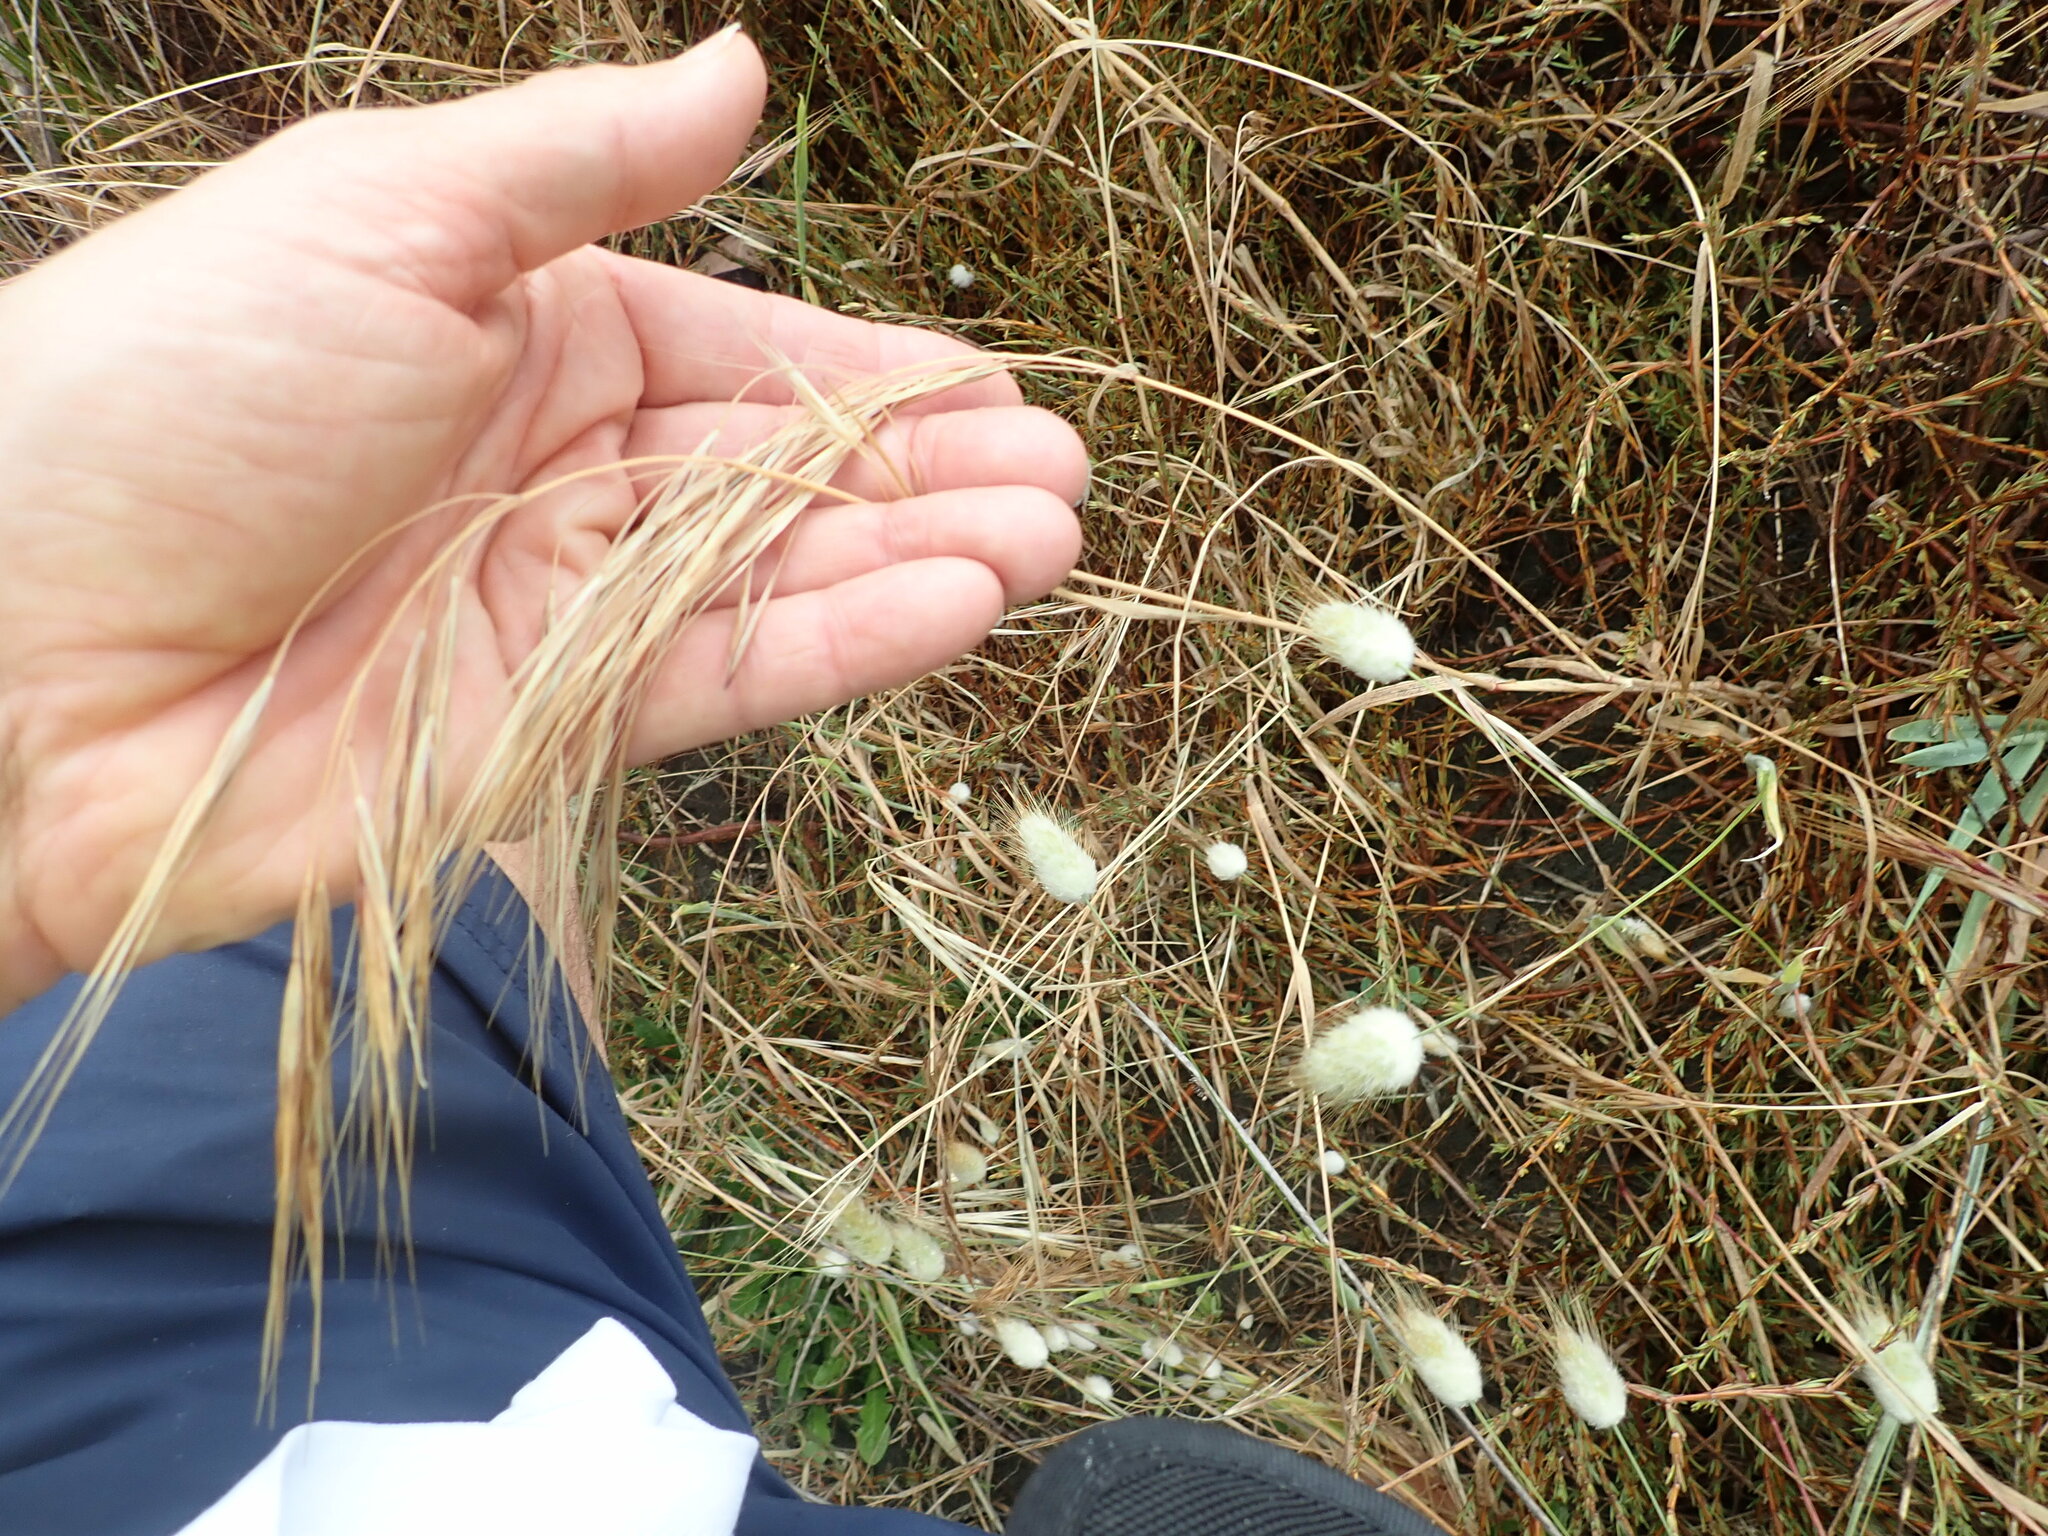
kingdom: Plantae
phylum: Tracheophyta
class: Liliopsida
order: Poales
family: Poaceae
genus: Bromus
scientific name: Bromus diandrus
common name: Ripgut brome
